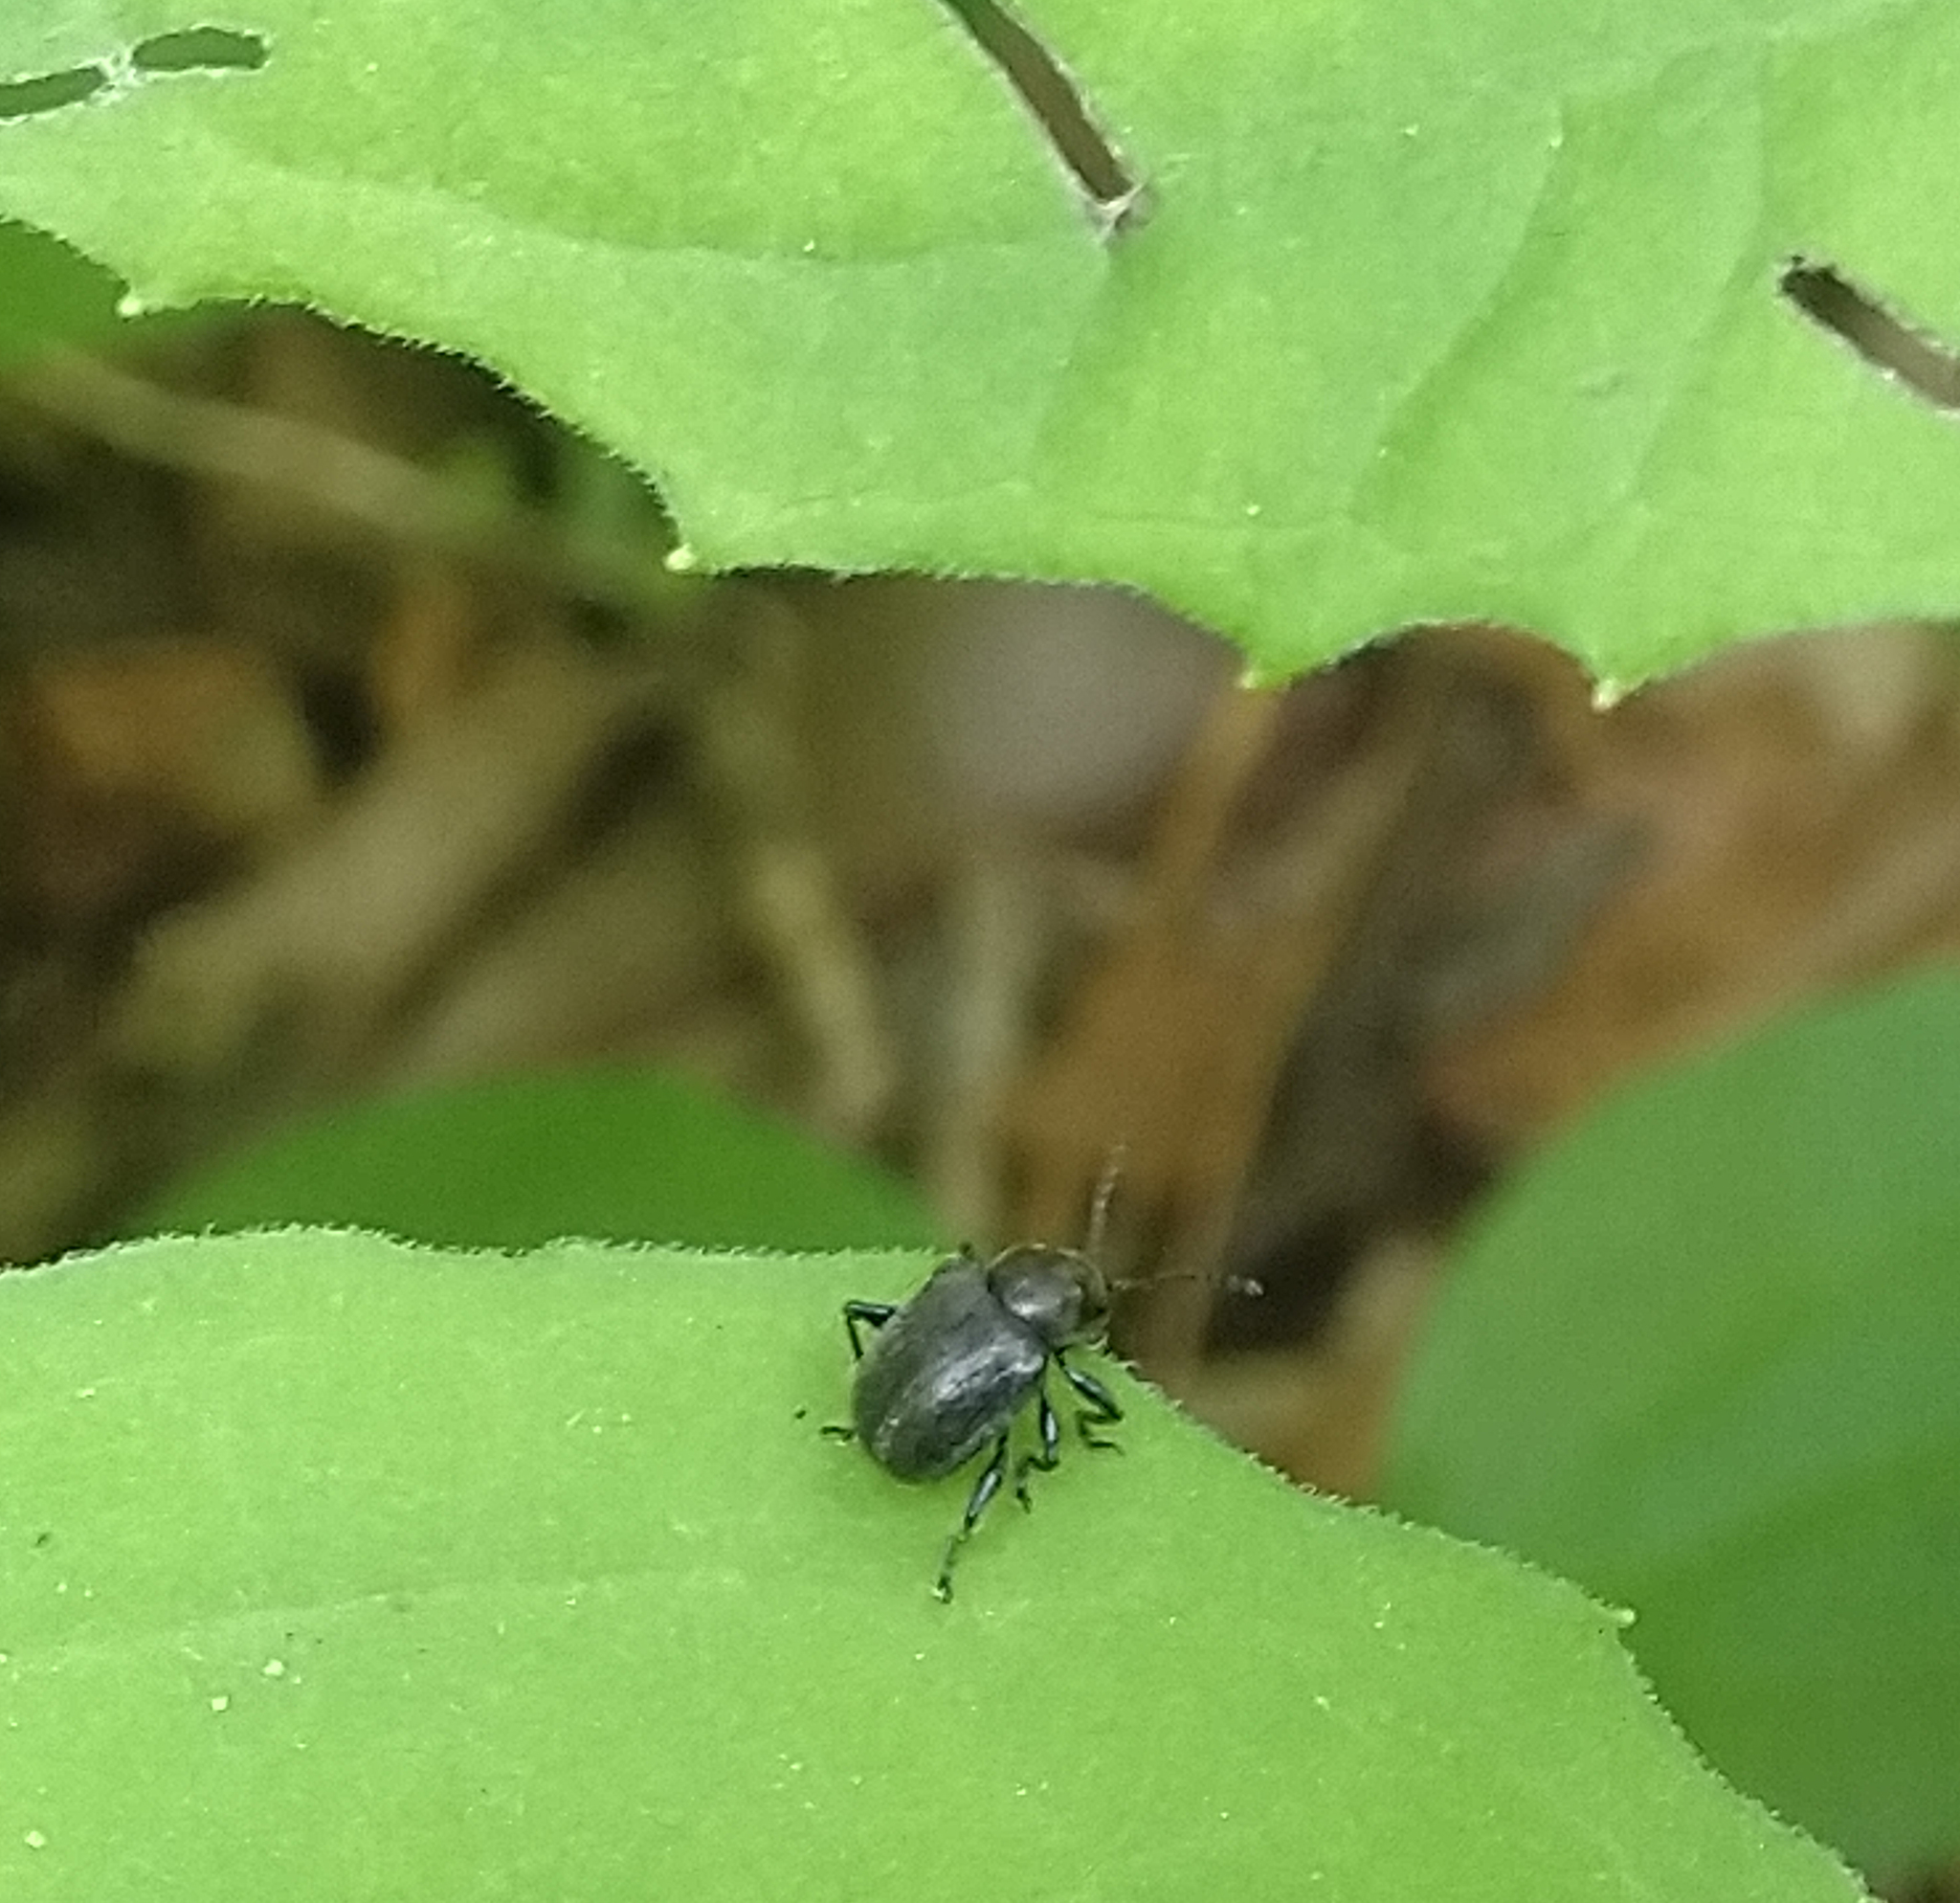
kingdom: Animalia
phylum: Arthropoda
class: Insecta
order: Coleoptera
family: Chrysomelidae
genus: Bromius
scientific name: Bromius obscurus
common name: Western grape rootworm
